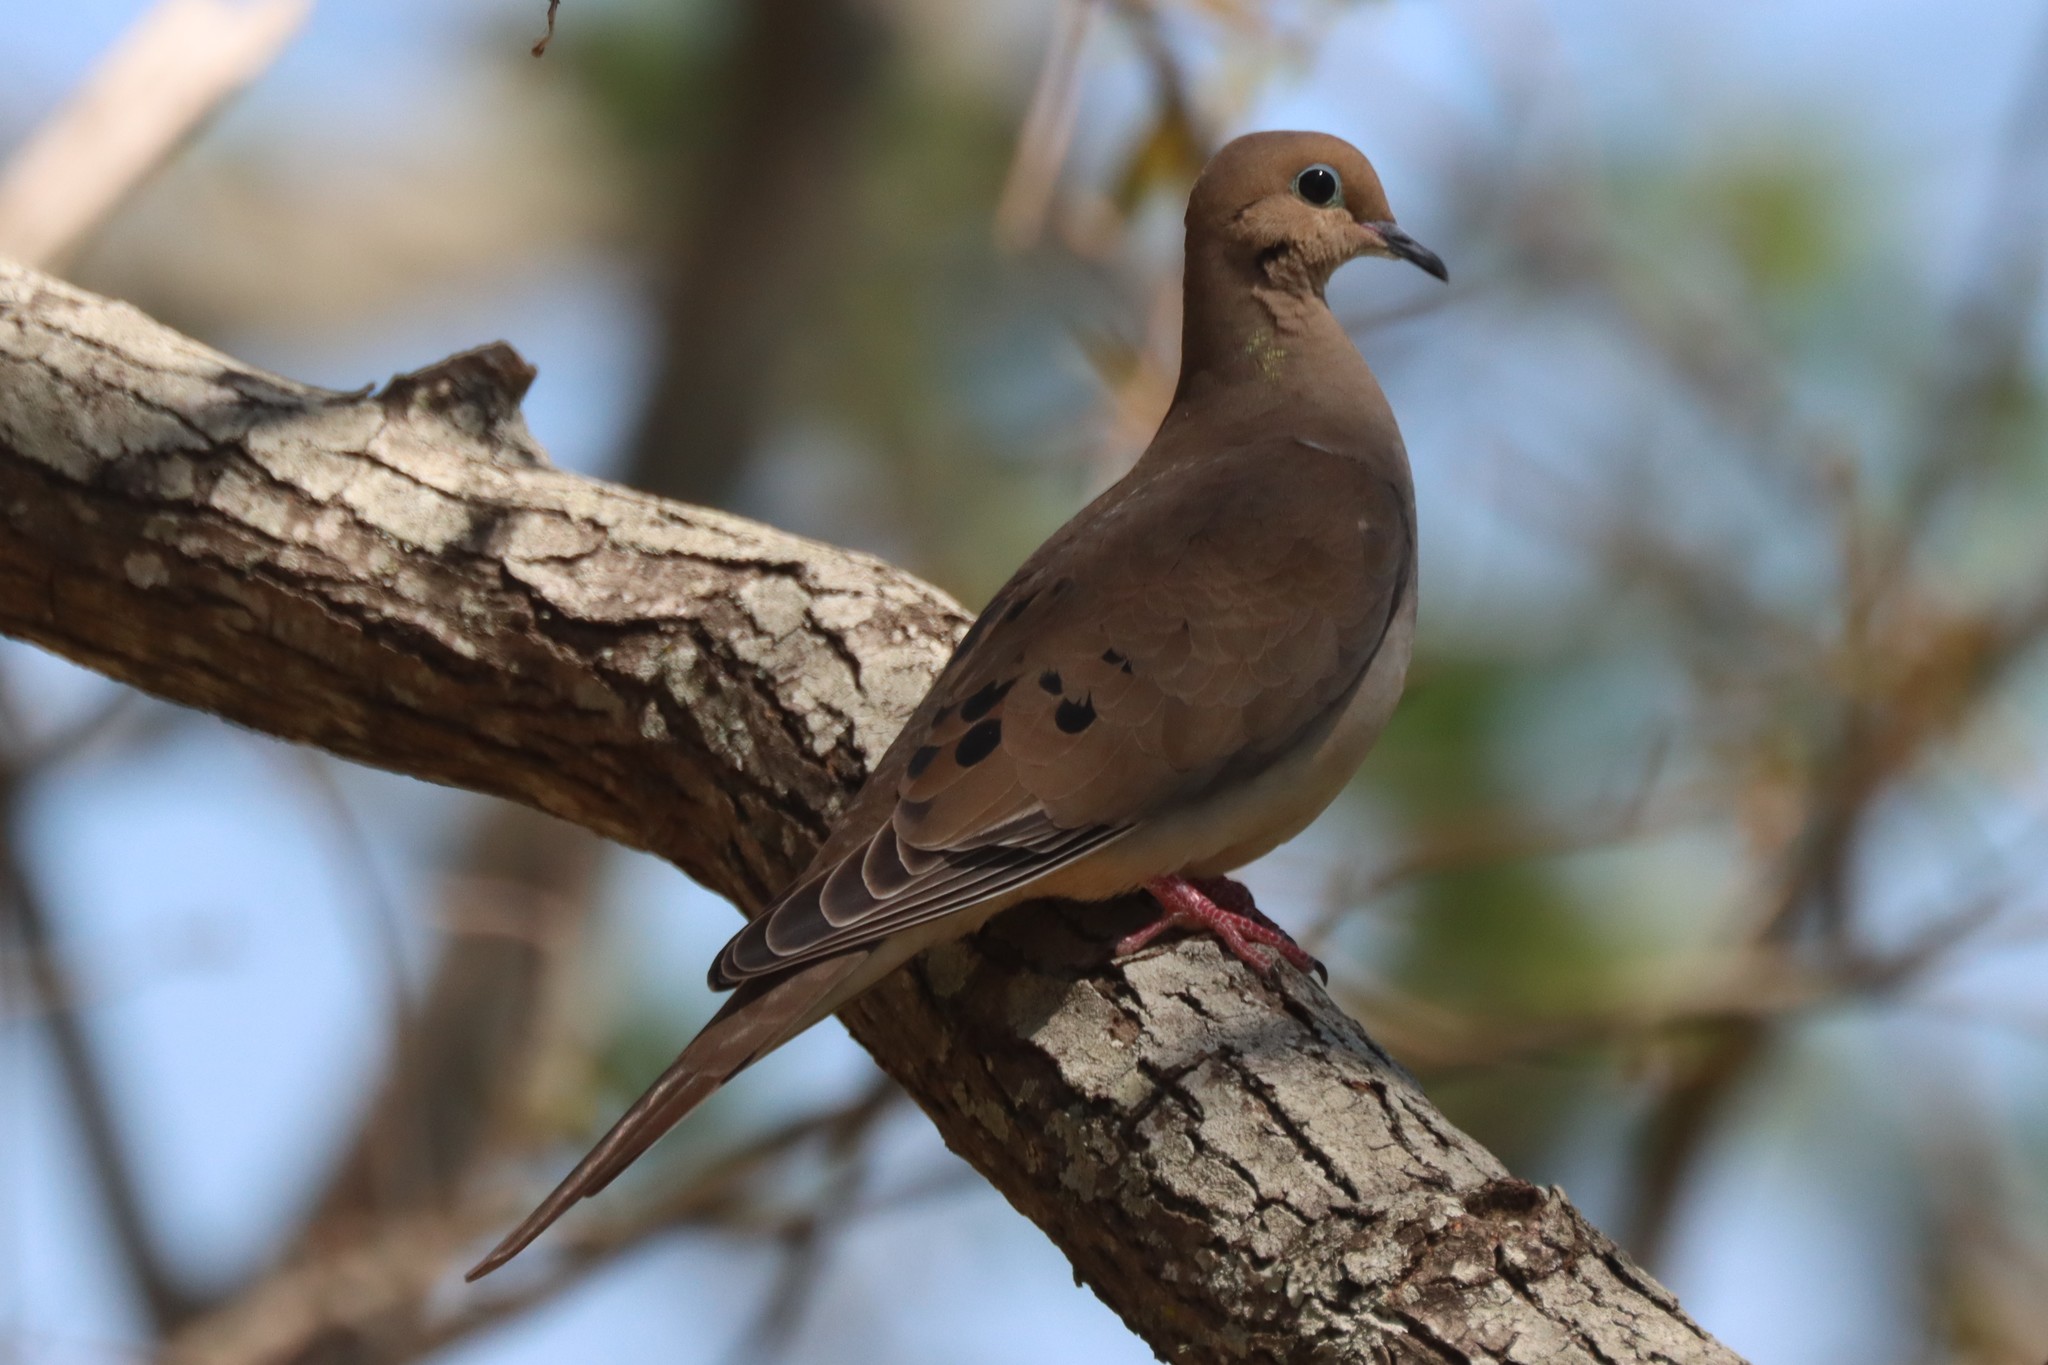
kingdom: Animalia
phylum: Chordata
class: Aves
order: Columbiformes
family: Columbidae
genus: Zenaida
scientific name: Zenaida macroura
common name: Mourning dove
